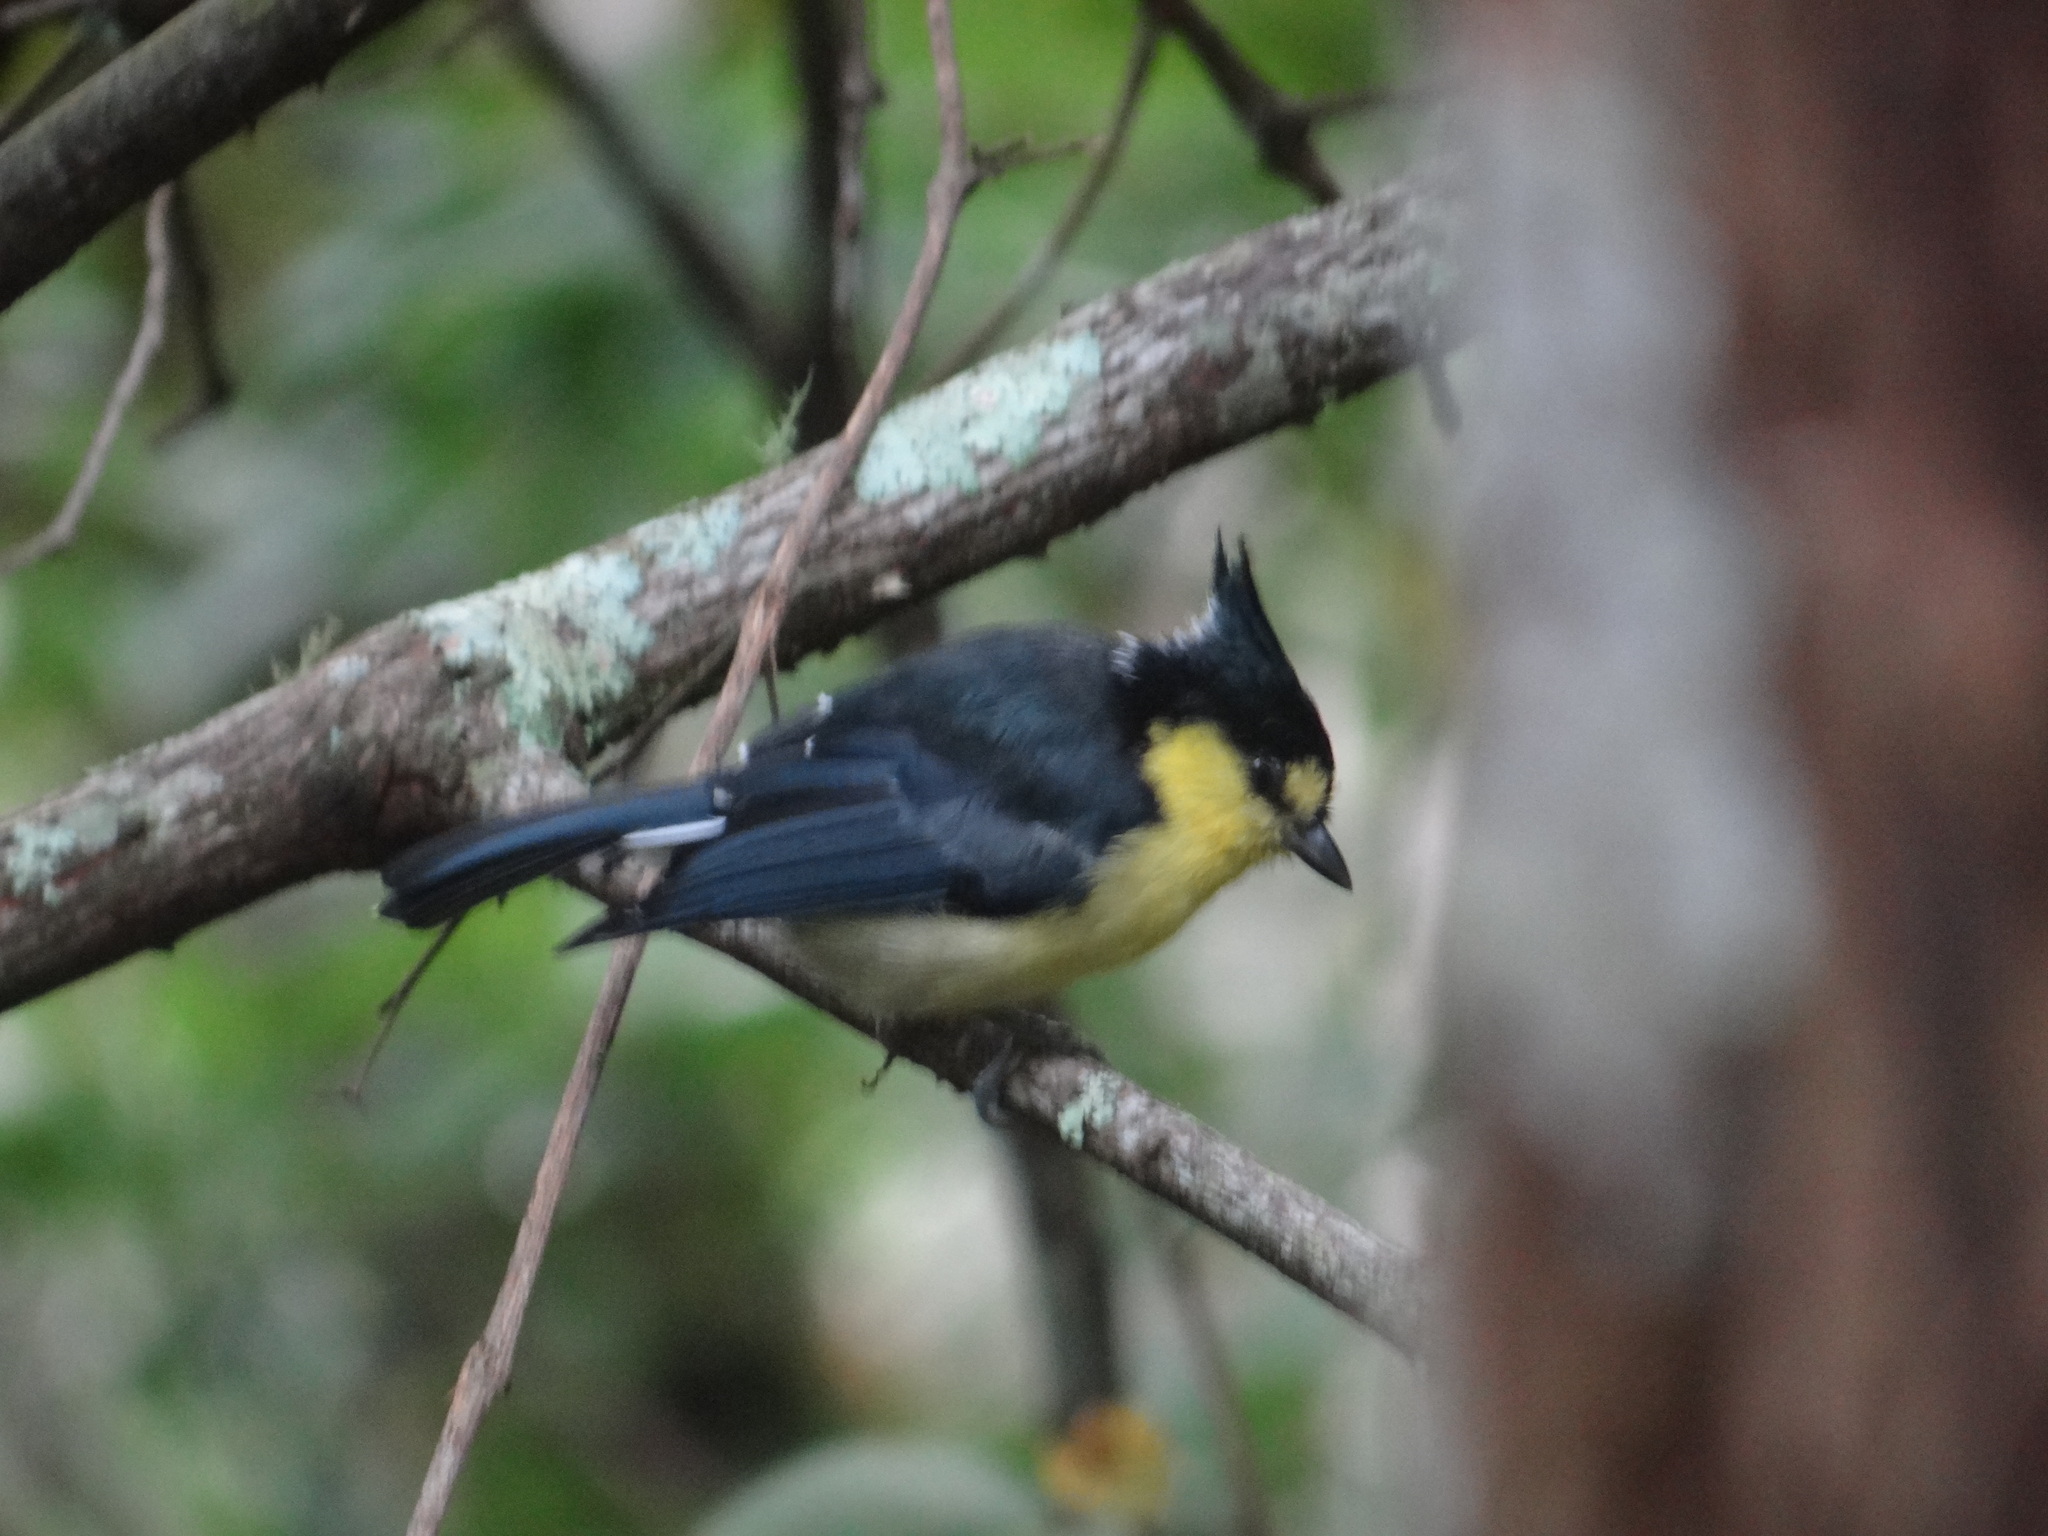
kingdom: Animalia
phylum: Chordata
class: Aves
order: Passeriformes
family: Paridae
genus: Parus
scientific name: Parus holsti
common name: Yellow tit
